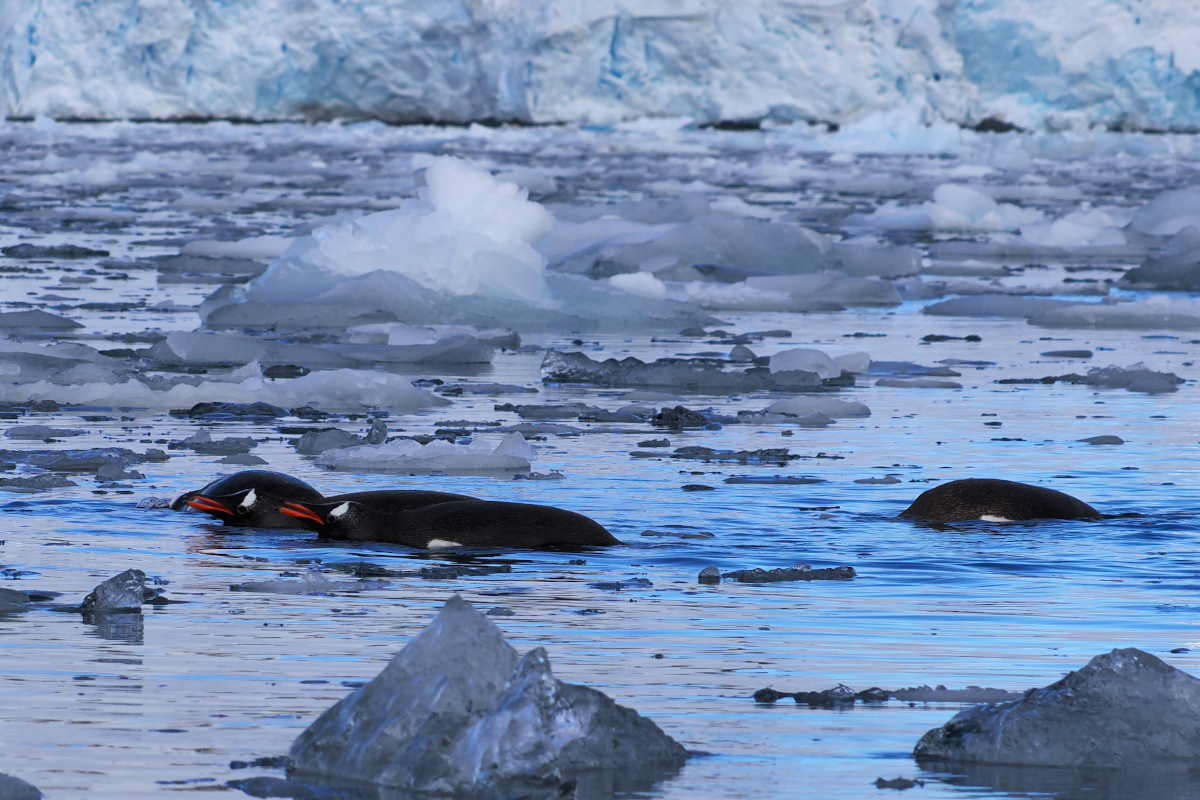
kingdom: Animalia
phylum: Chordata
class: Aves
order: Sphenisciformes
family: Spheniscidae
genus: Pygoscelis
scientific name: Pygoscelis papua
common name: Gentoo penguin
